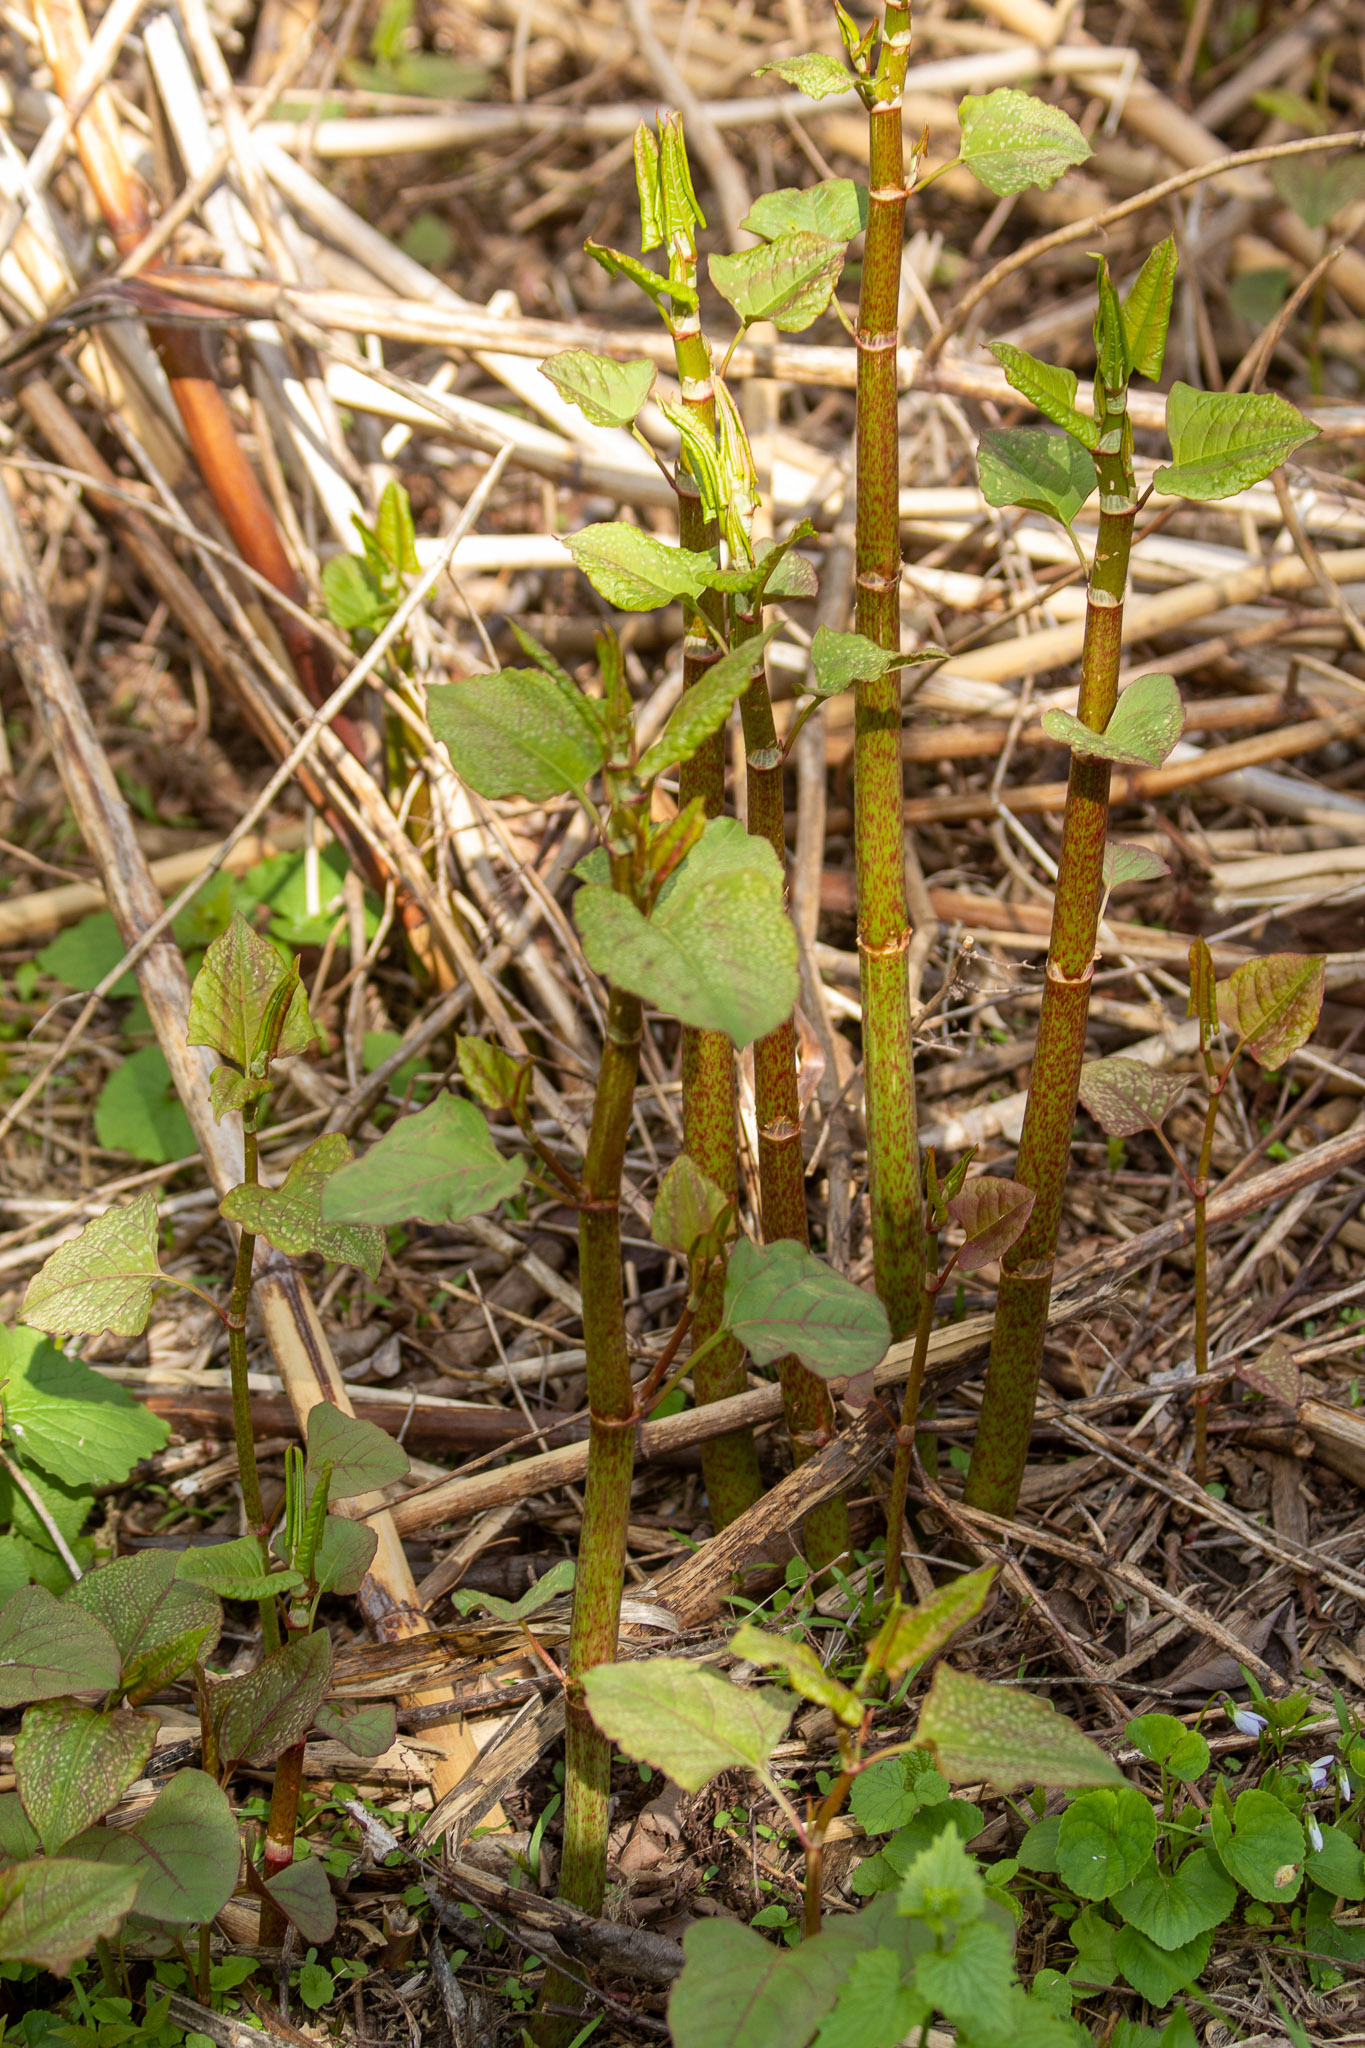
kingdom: Plantae
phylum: Tracheophyta
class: Magnoliopsida
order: Caryophyllales
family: Polygonaceae
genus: Reynoutria
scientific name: Reynoutria japonica
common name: Japanese knotweed
